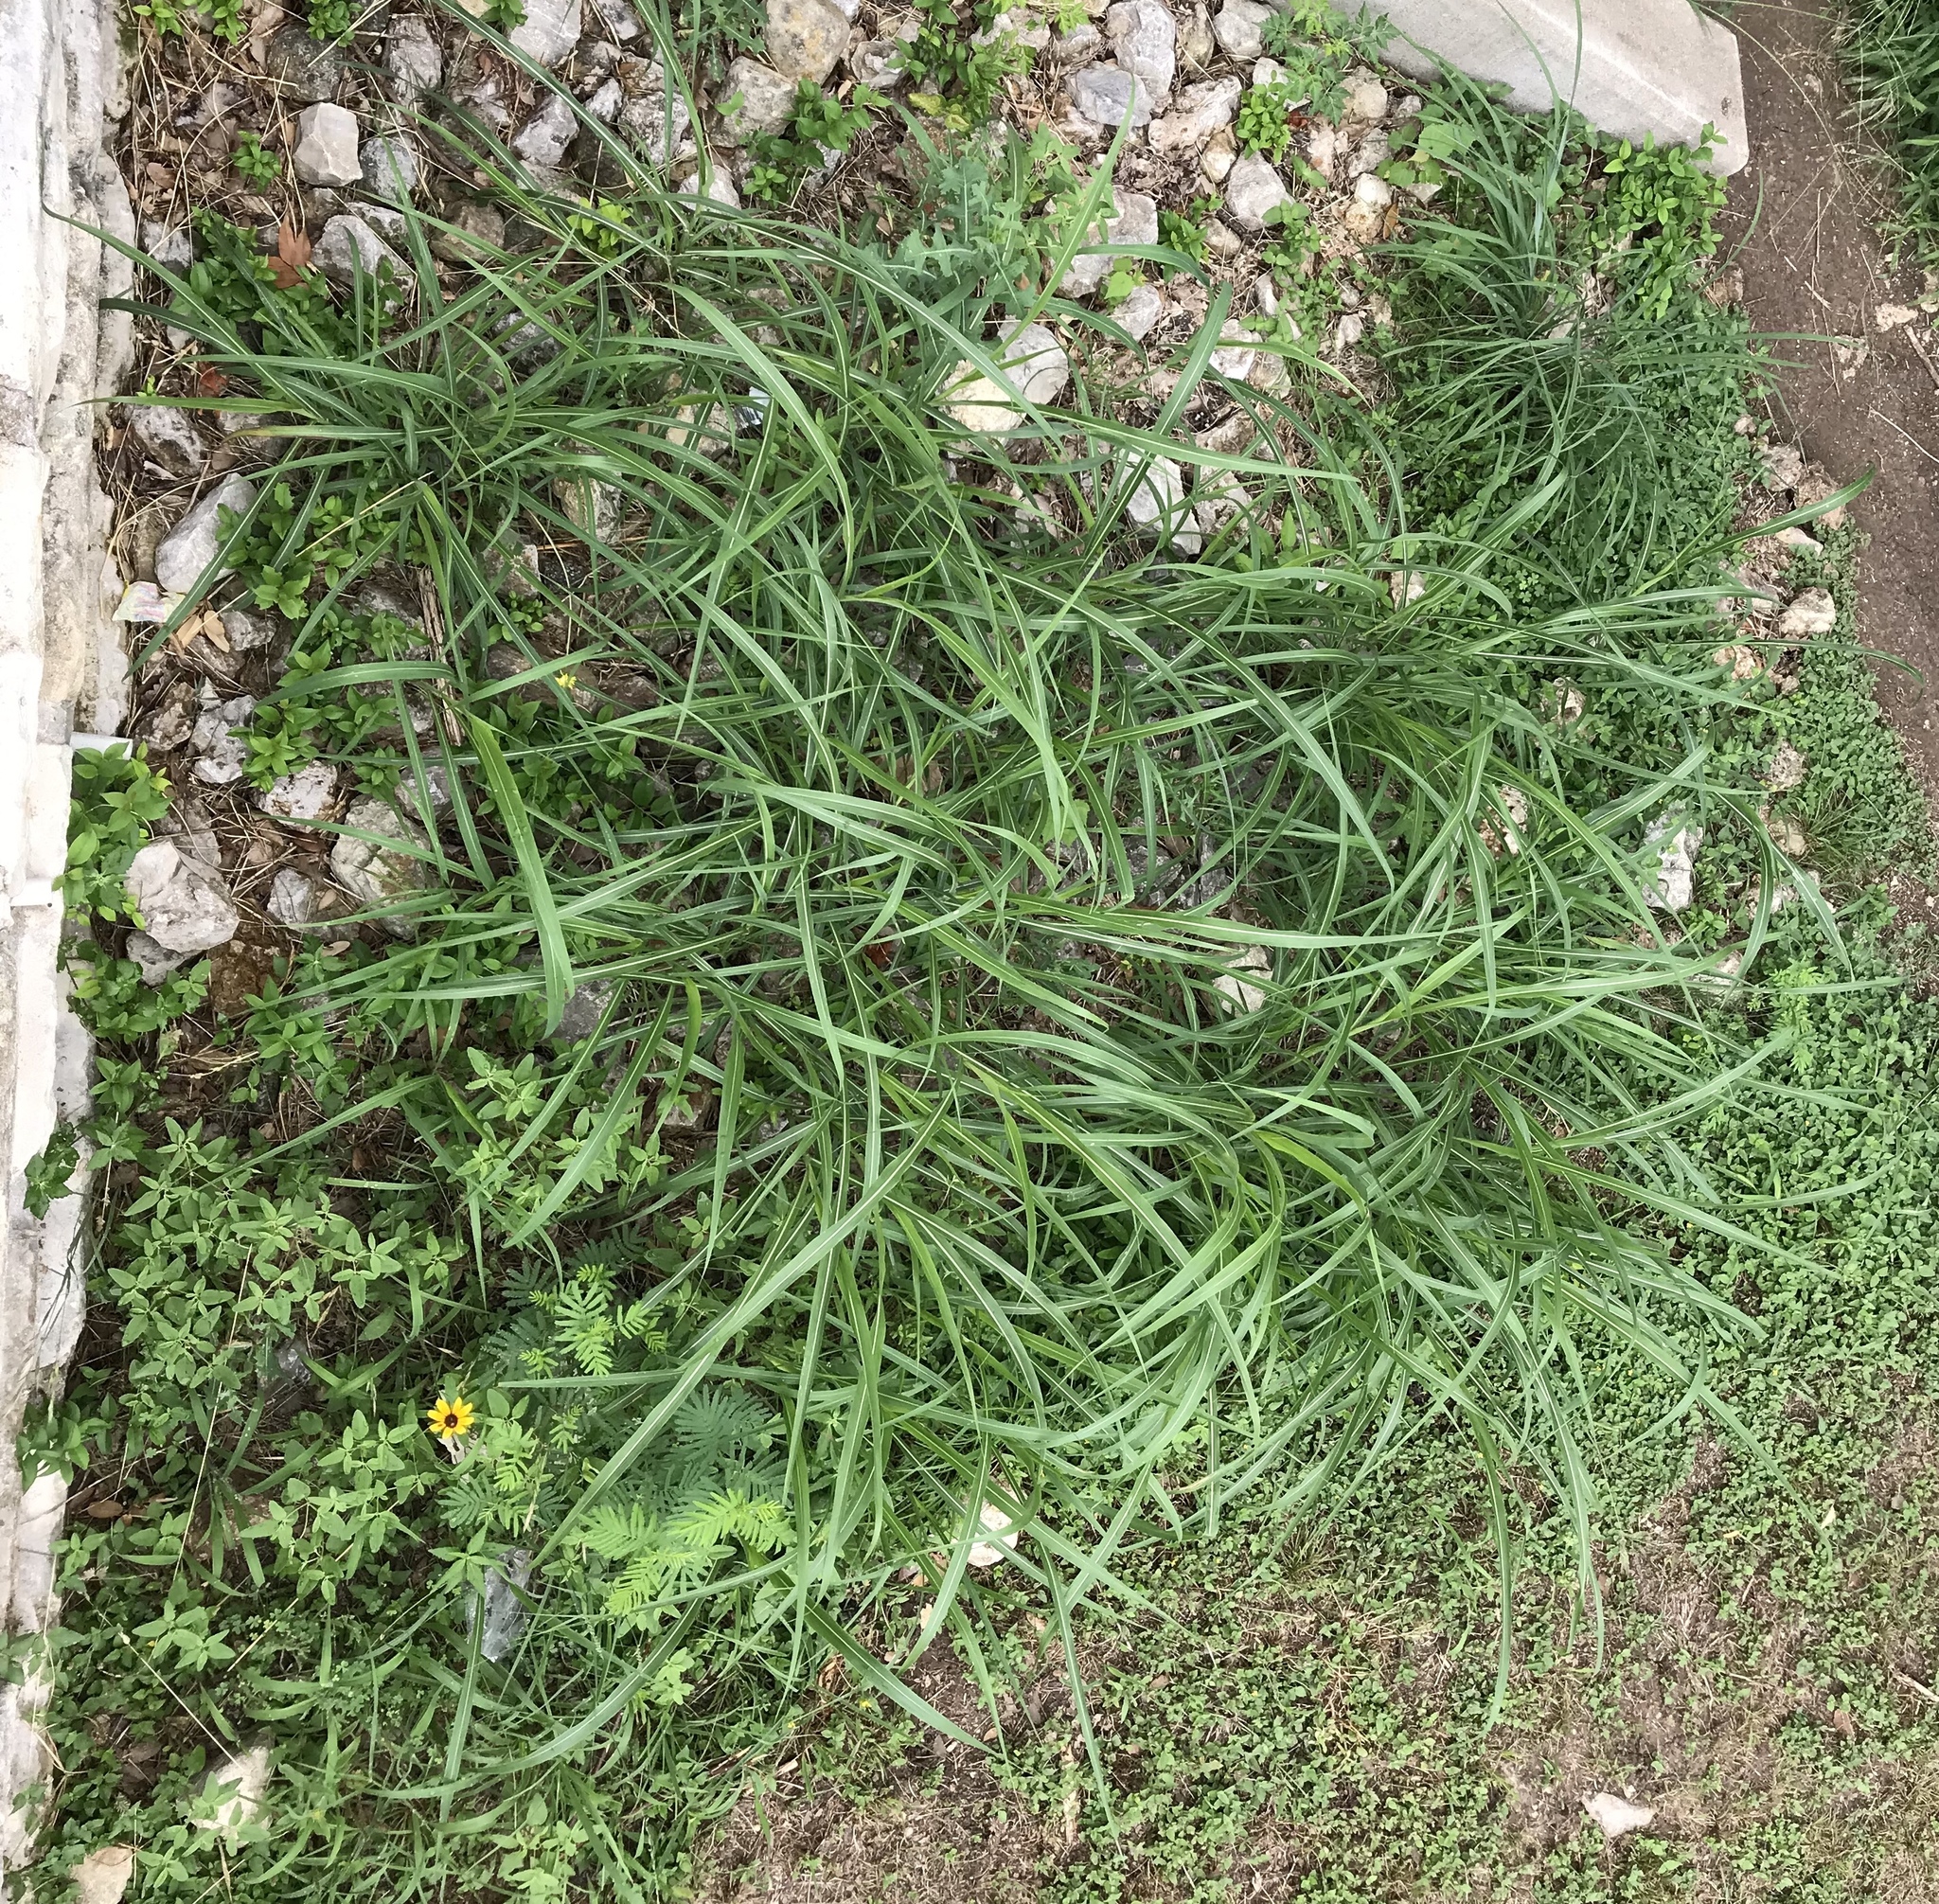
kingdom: Plantae
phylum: Tracheophyta
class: Liliopsida
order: Poales
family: Poaceae
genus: Sorghum
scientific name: Sorghum halepense
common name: Johnson-grass
